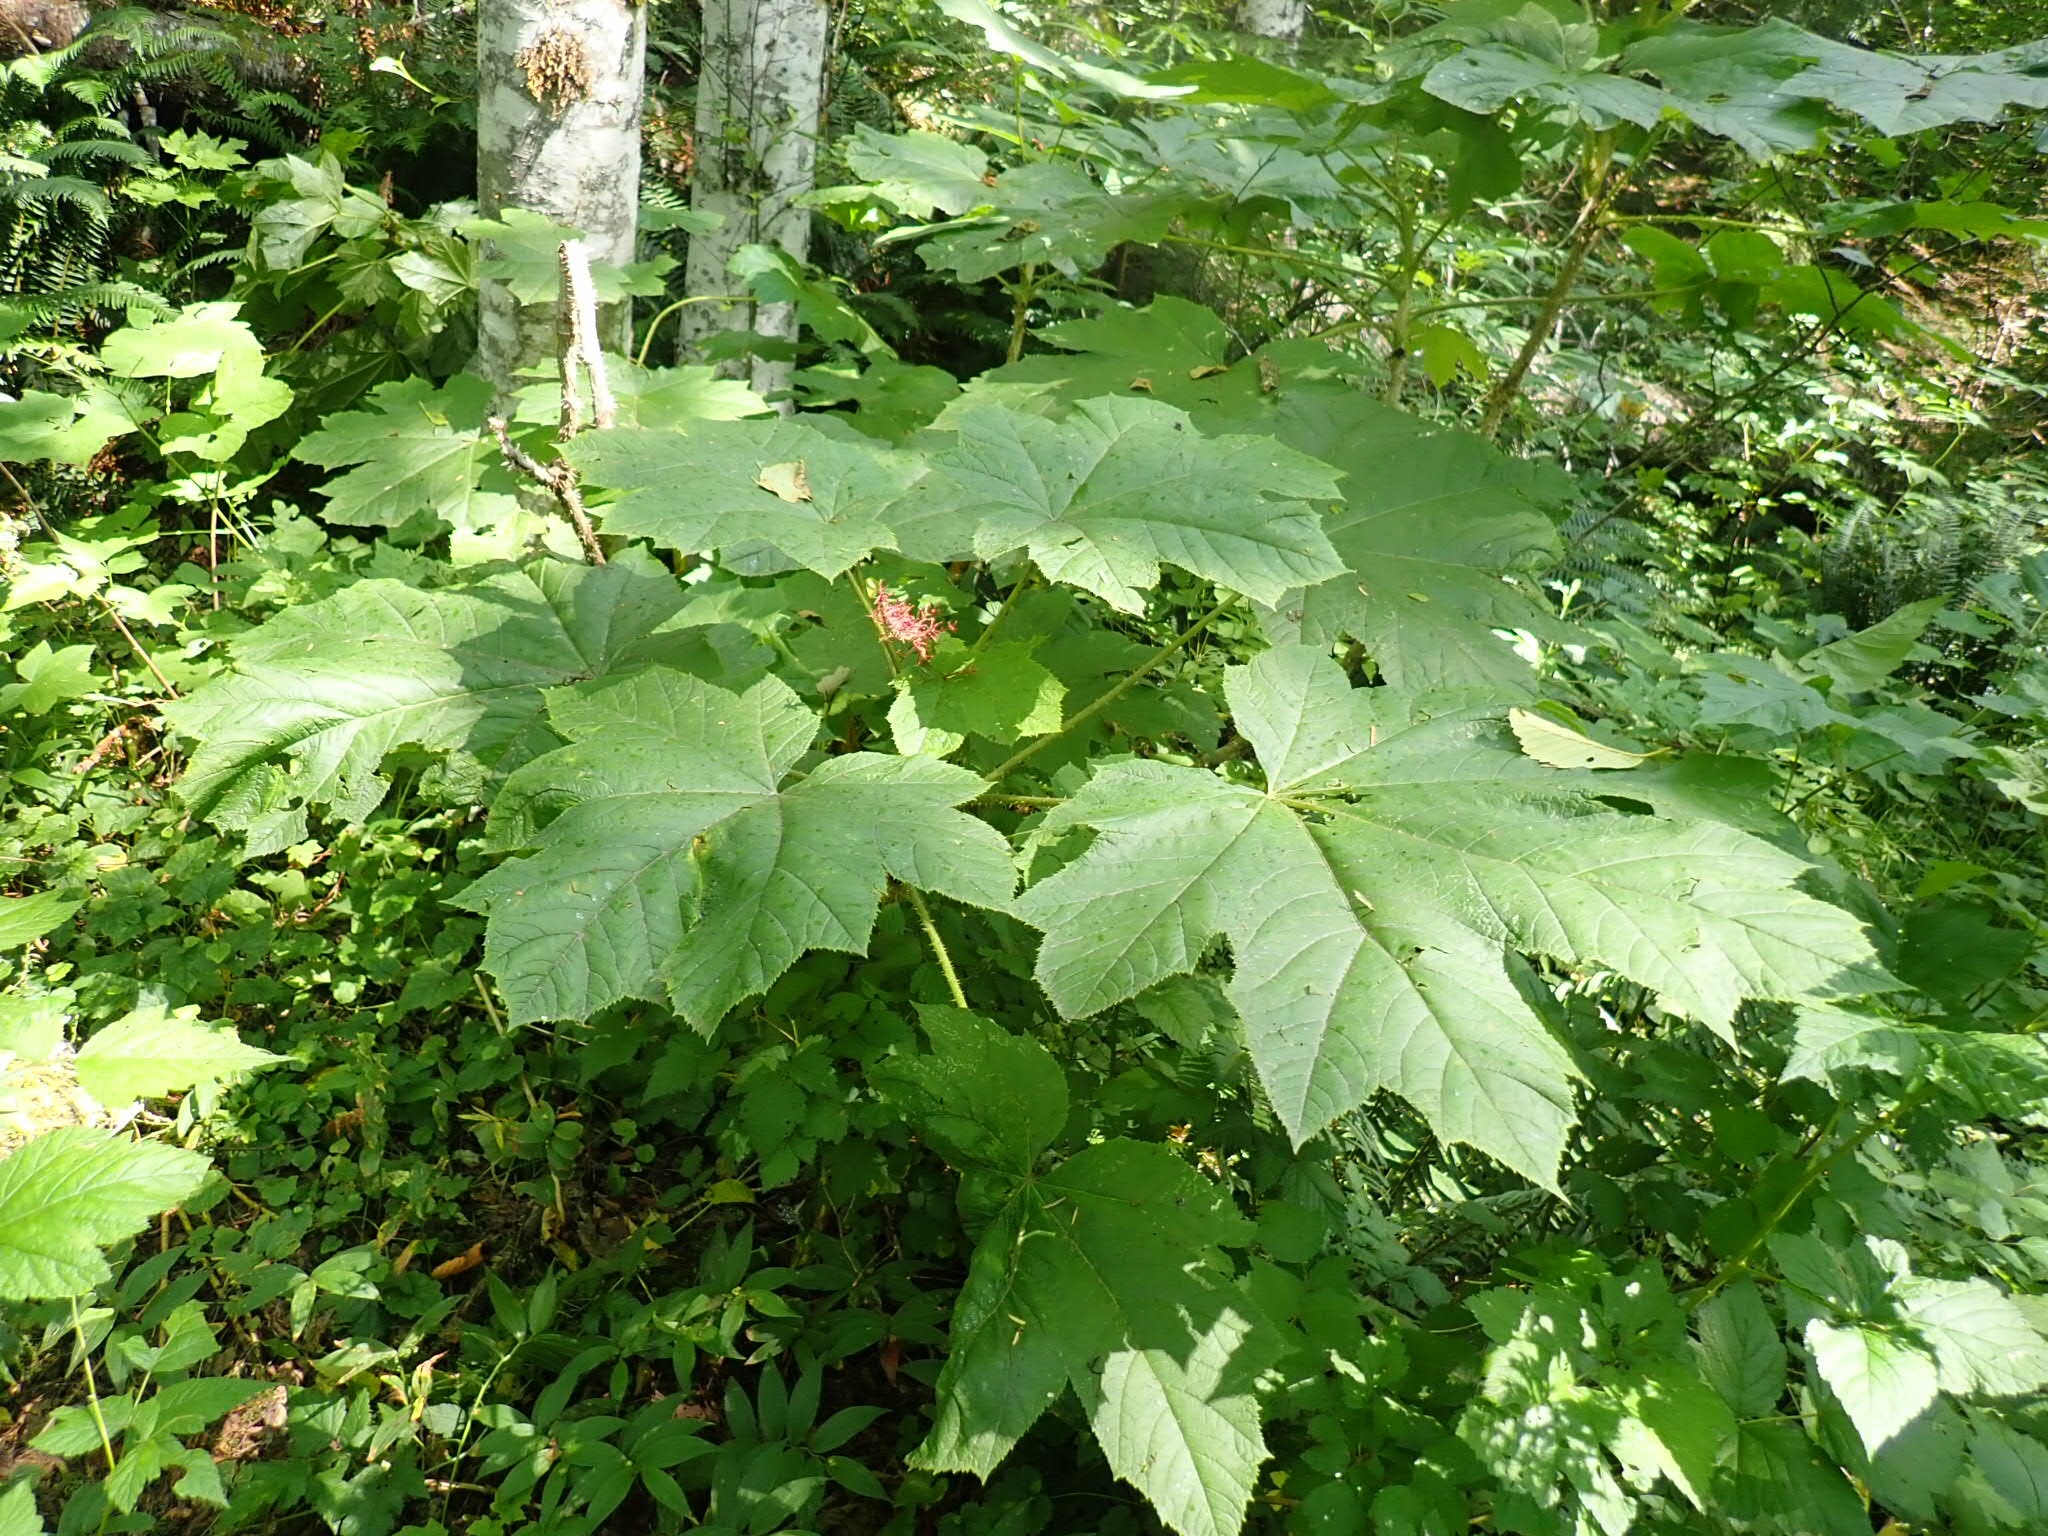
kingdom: Plantae
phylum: Tracheophyta
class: Magnoliopsida
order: Apiales
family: Araliaceae
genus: Oplopanax
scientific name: Oplopanax horridus
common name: Devil's walking-stick
